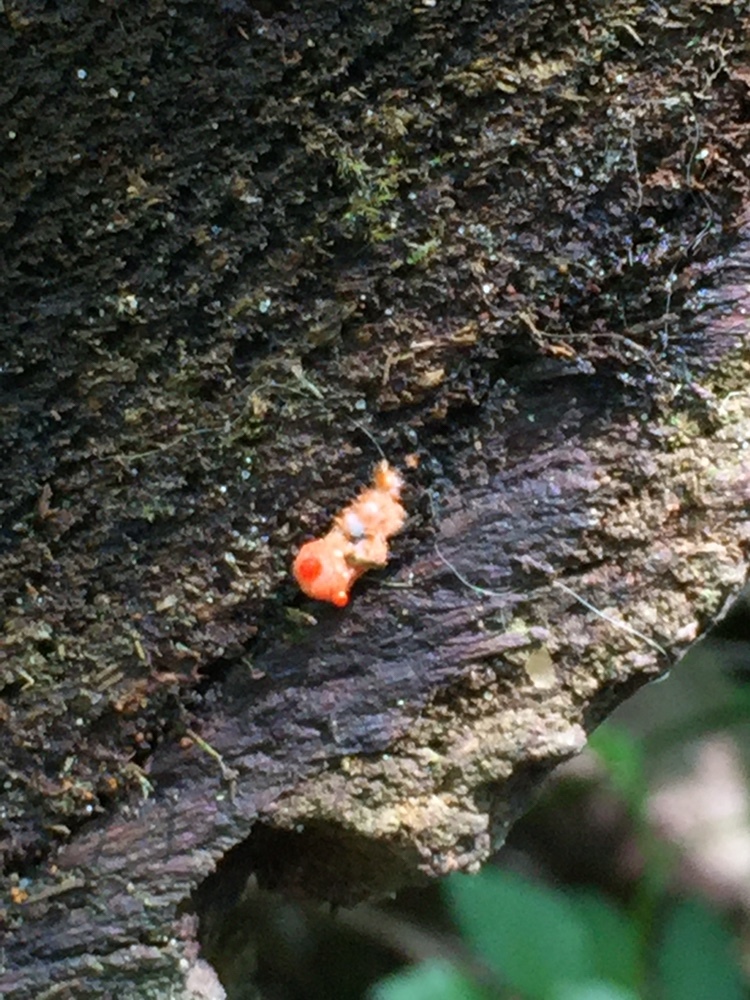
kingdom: Protozoa
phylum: Mycetozoa
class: Myxomycetes
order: Cribrariales
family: Tubiferaceae
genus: Lycogala
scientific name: Lycogala epidendrum
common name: Wolf's milk
